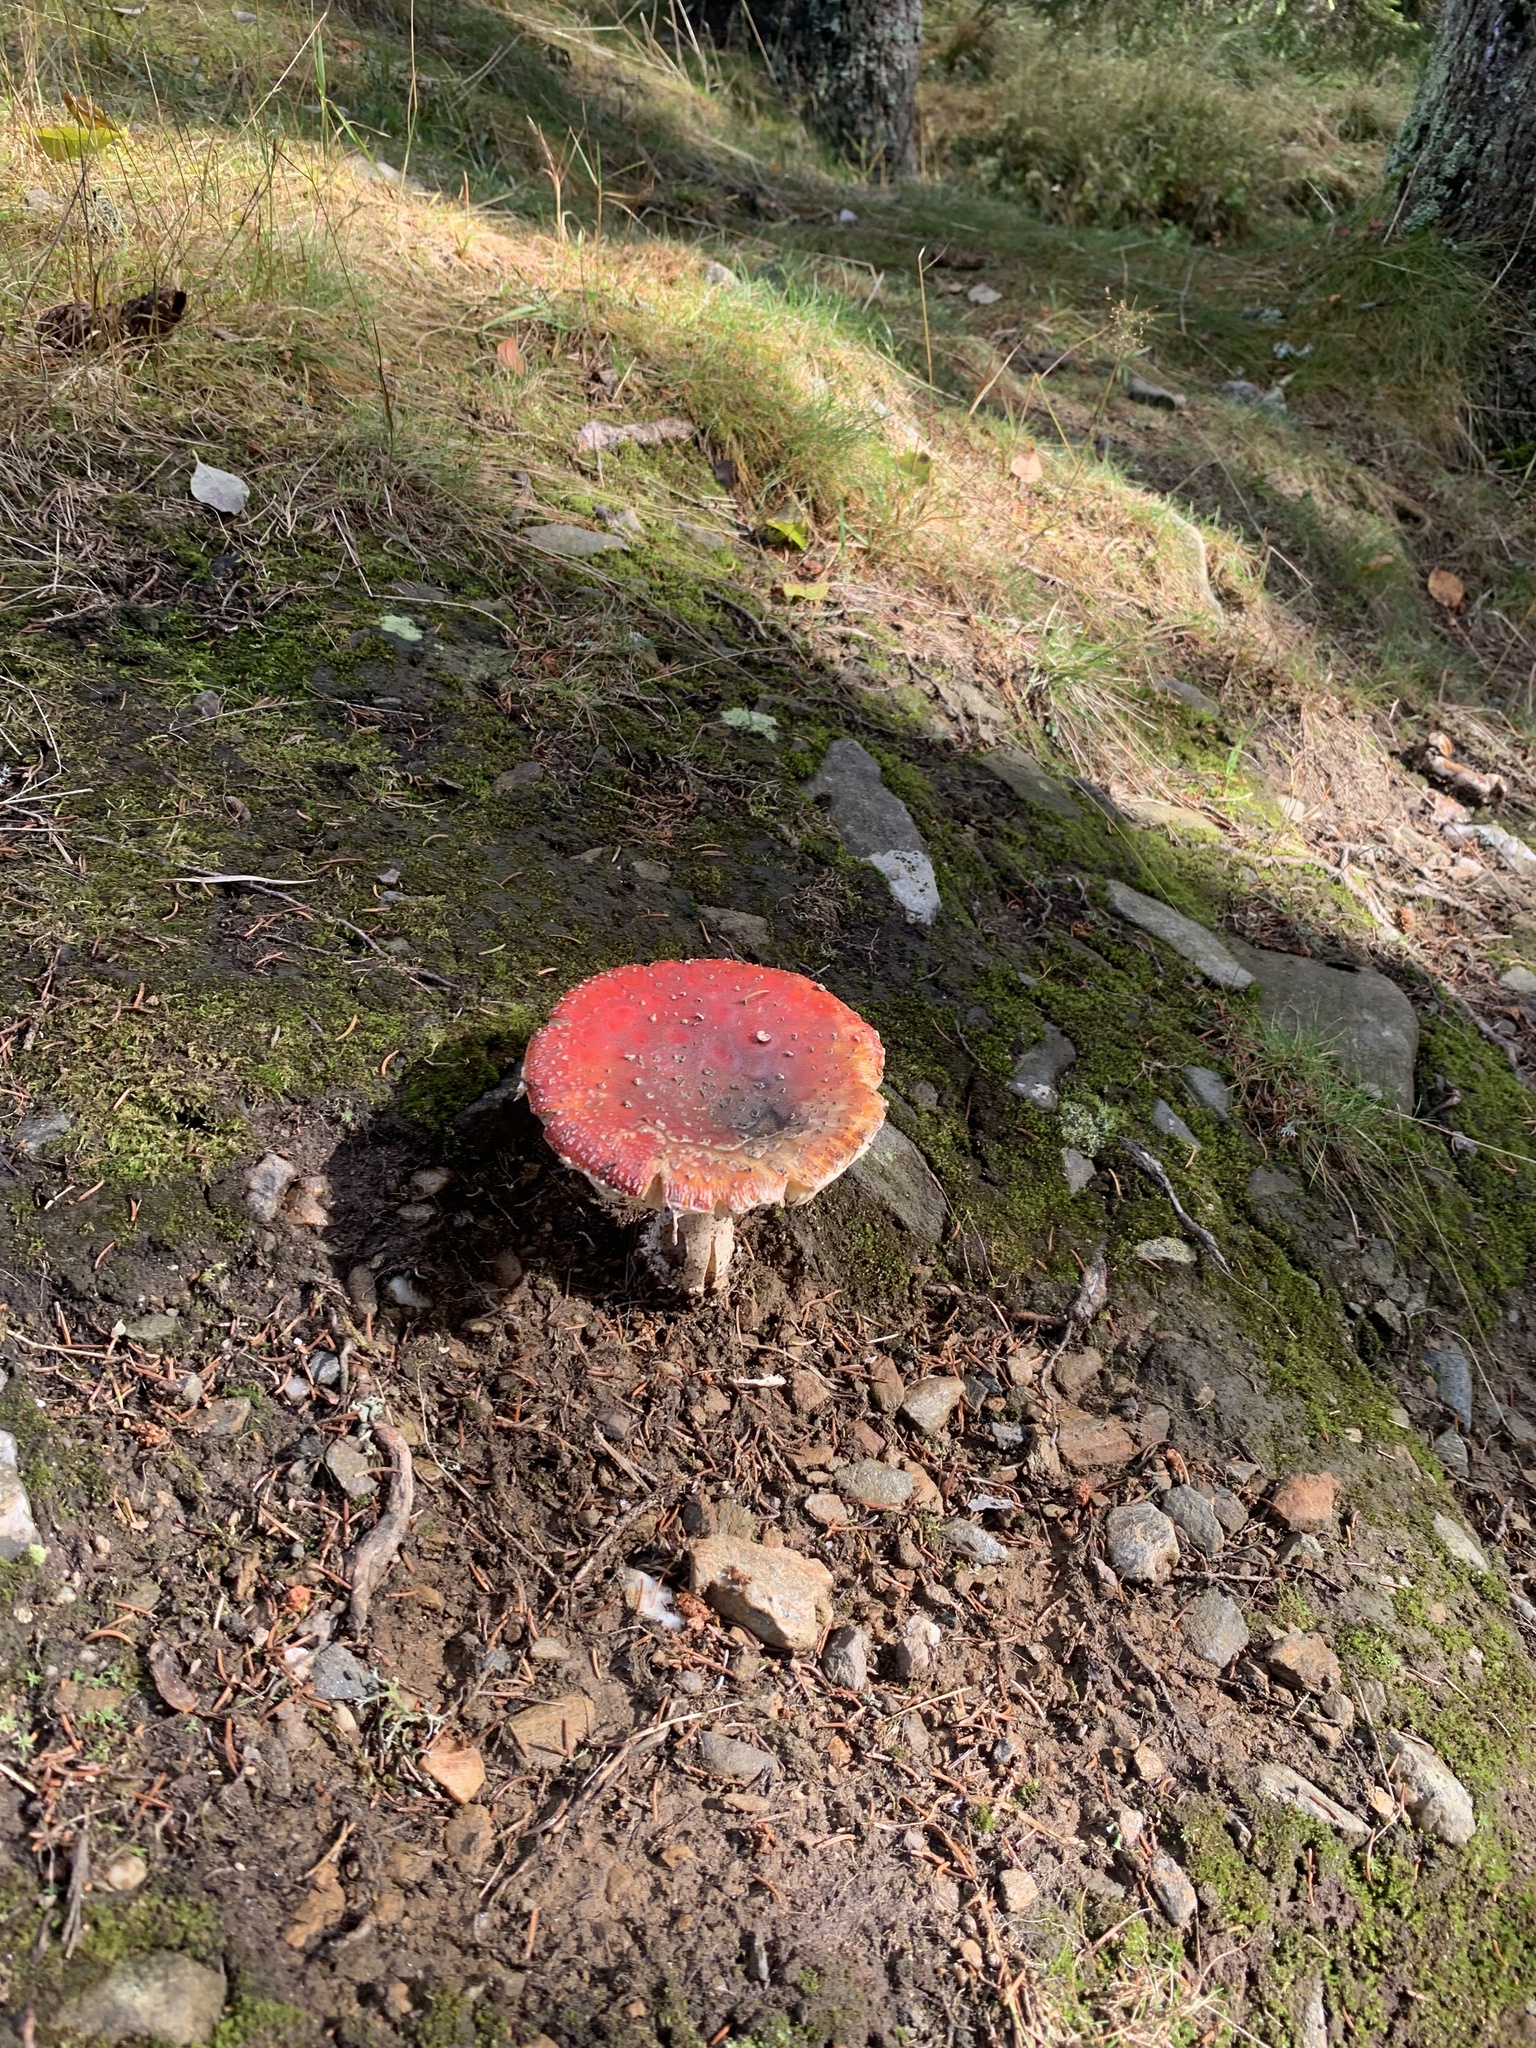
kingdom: Fungi
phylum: Basidiomycota
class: Agaricomycetes
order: Agaricales
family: Amanitaceae
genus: Amanita
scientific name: Amanita muscaria
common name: Fly agaric
